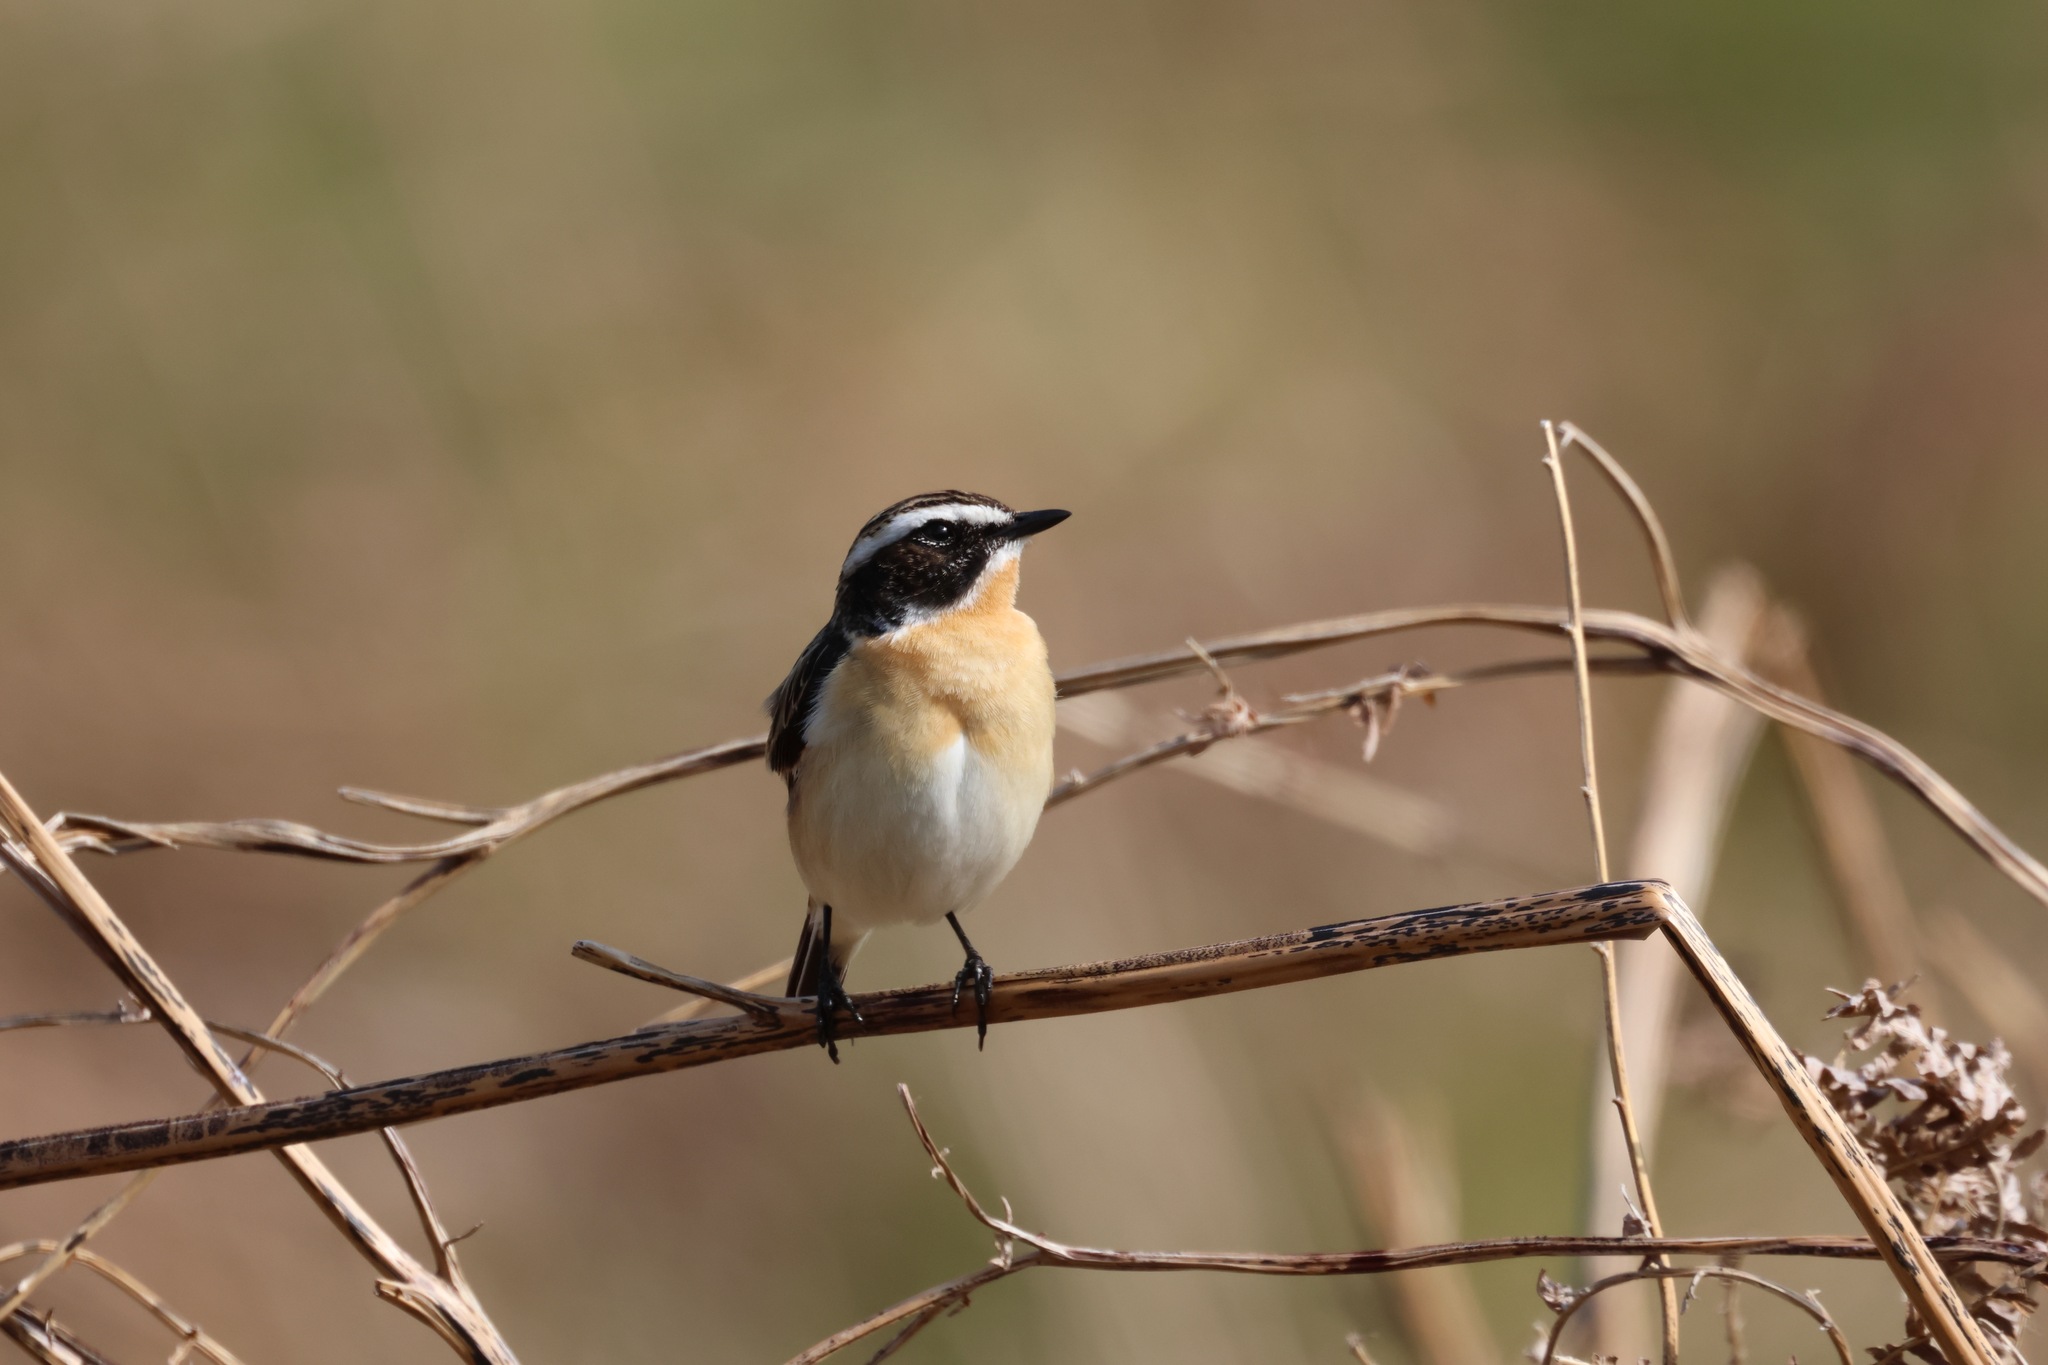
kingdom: Animalia
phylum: Chordata
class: Aves
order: Passeriformes
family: Muscicapidae
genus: Saxicola
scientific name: Saxicola rubetra
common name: Whinchat
